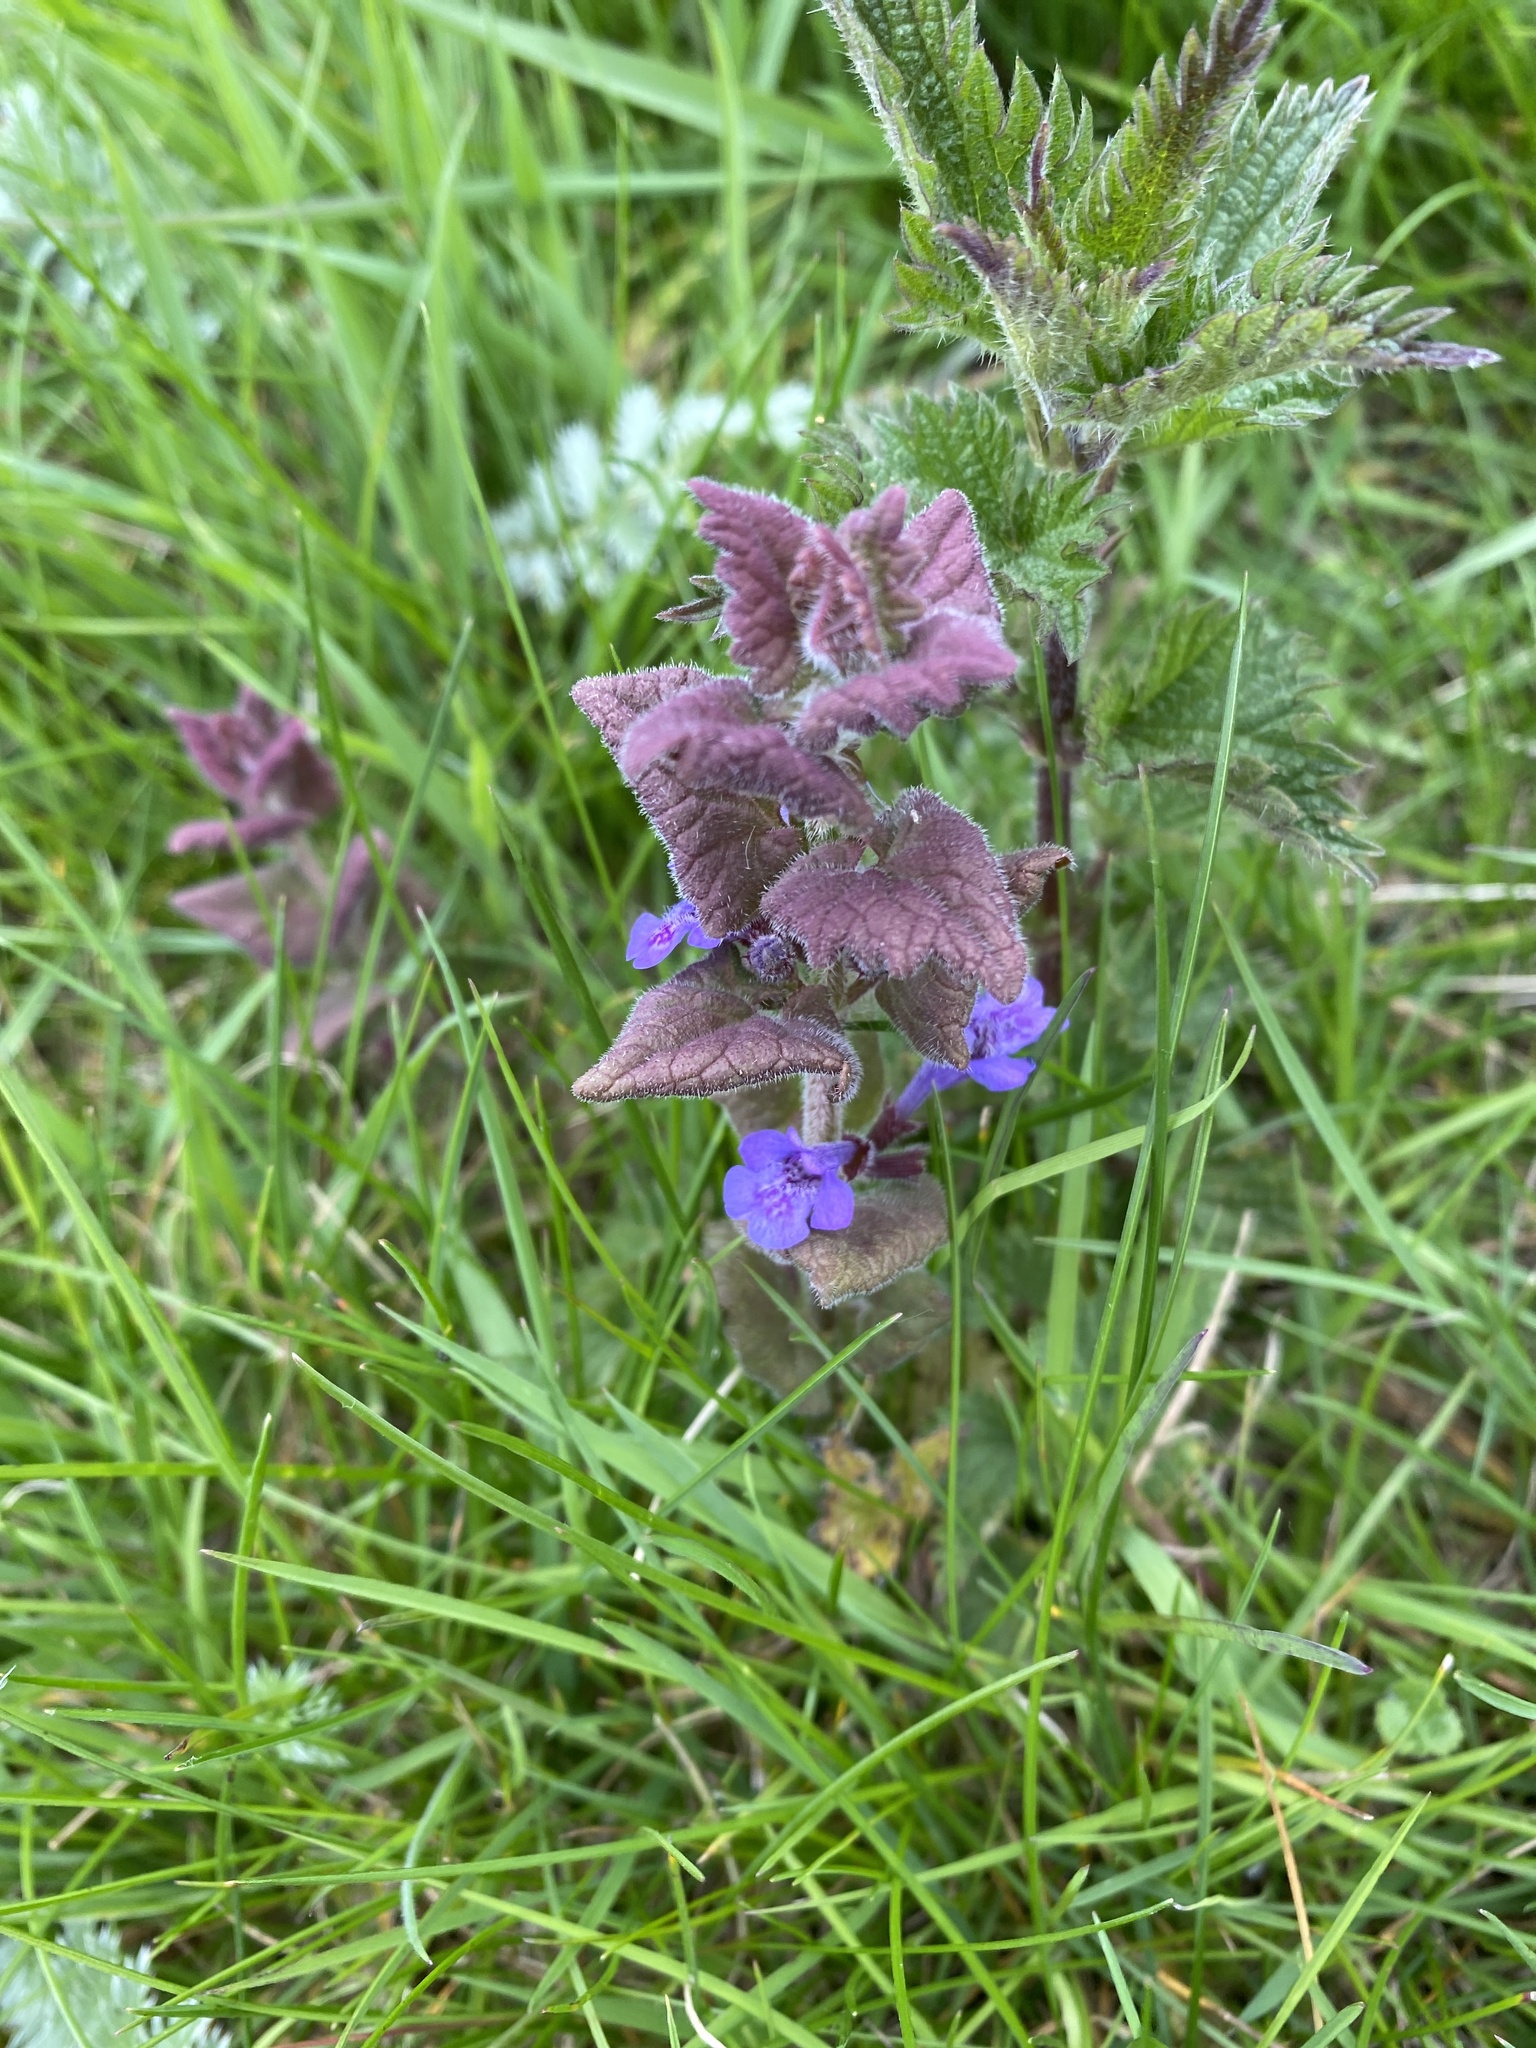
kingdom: Plantae
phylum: Tracheophyta
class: Magnoliopsida
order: Lamiales
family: Lamiaceae
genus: Glechoma
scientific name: Glechoma hederacea
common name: Ground ivy
